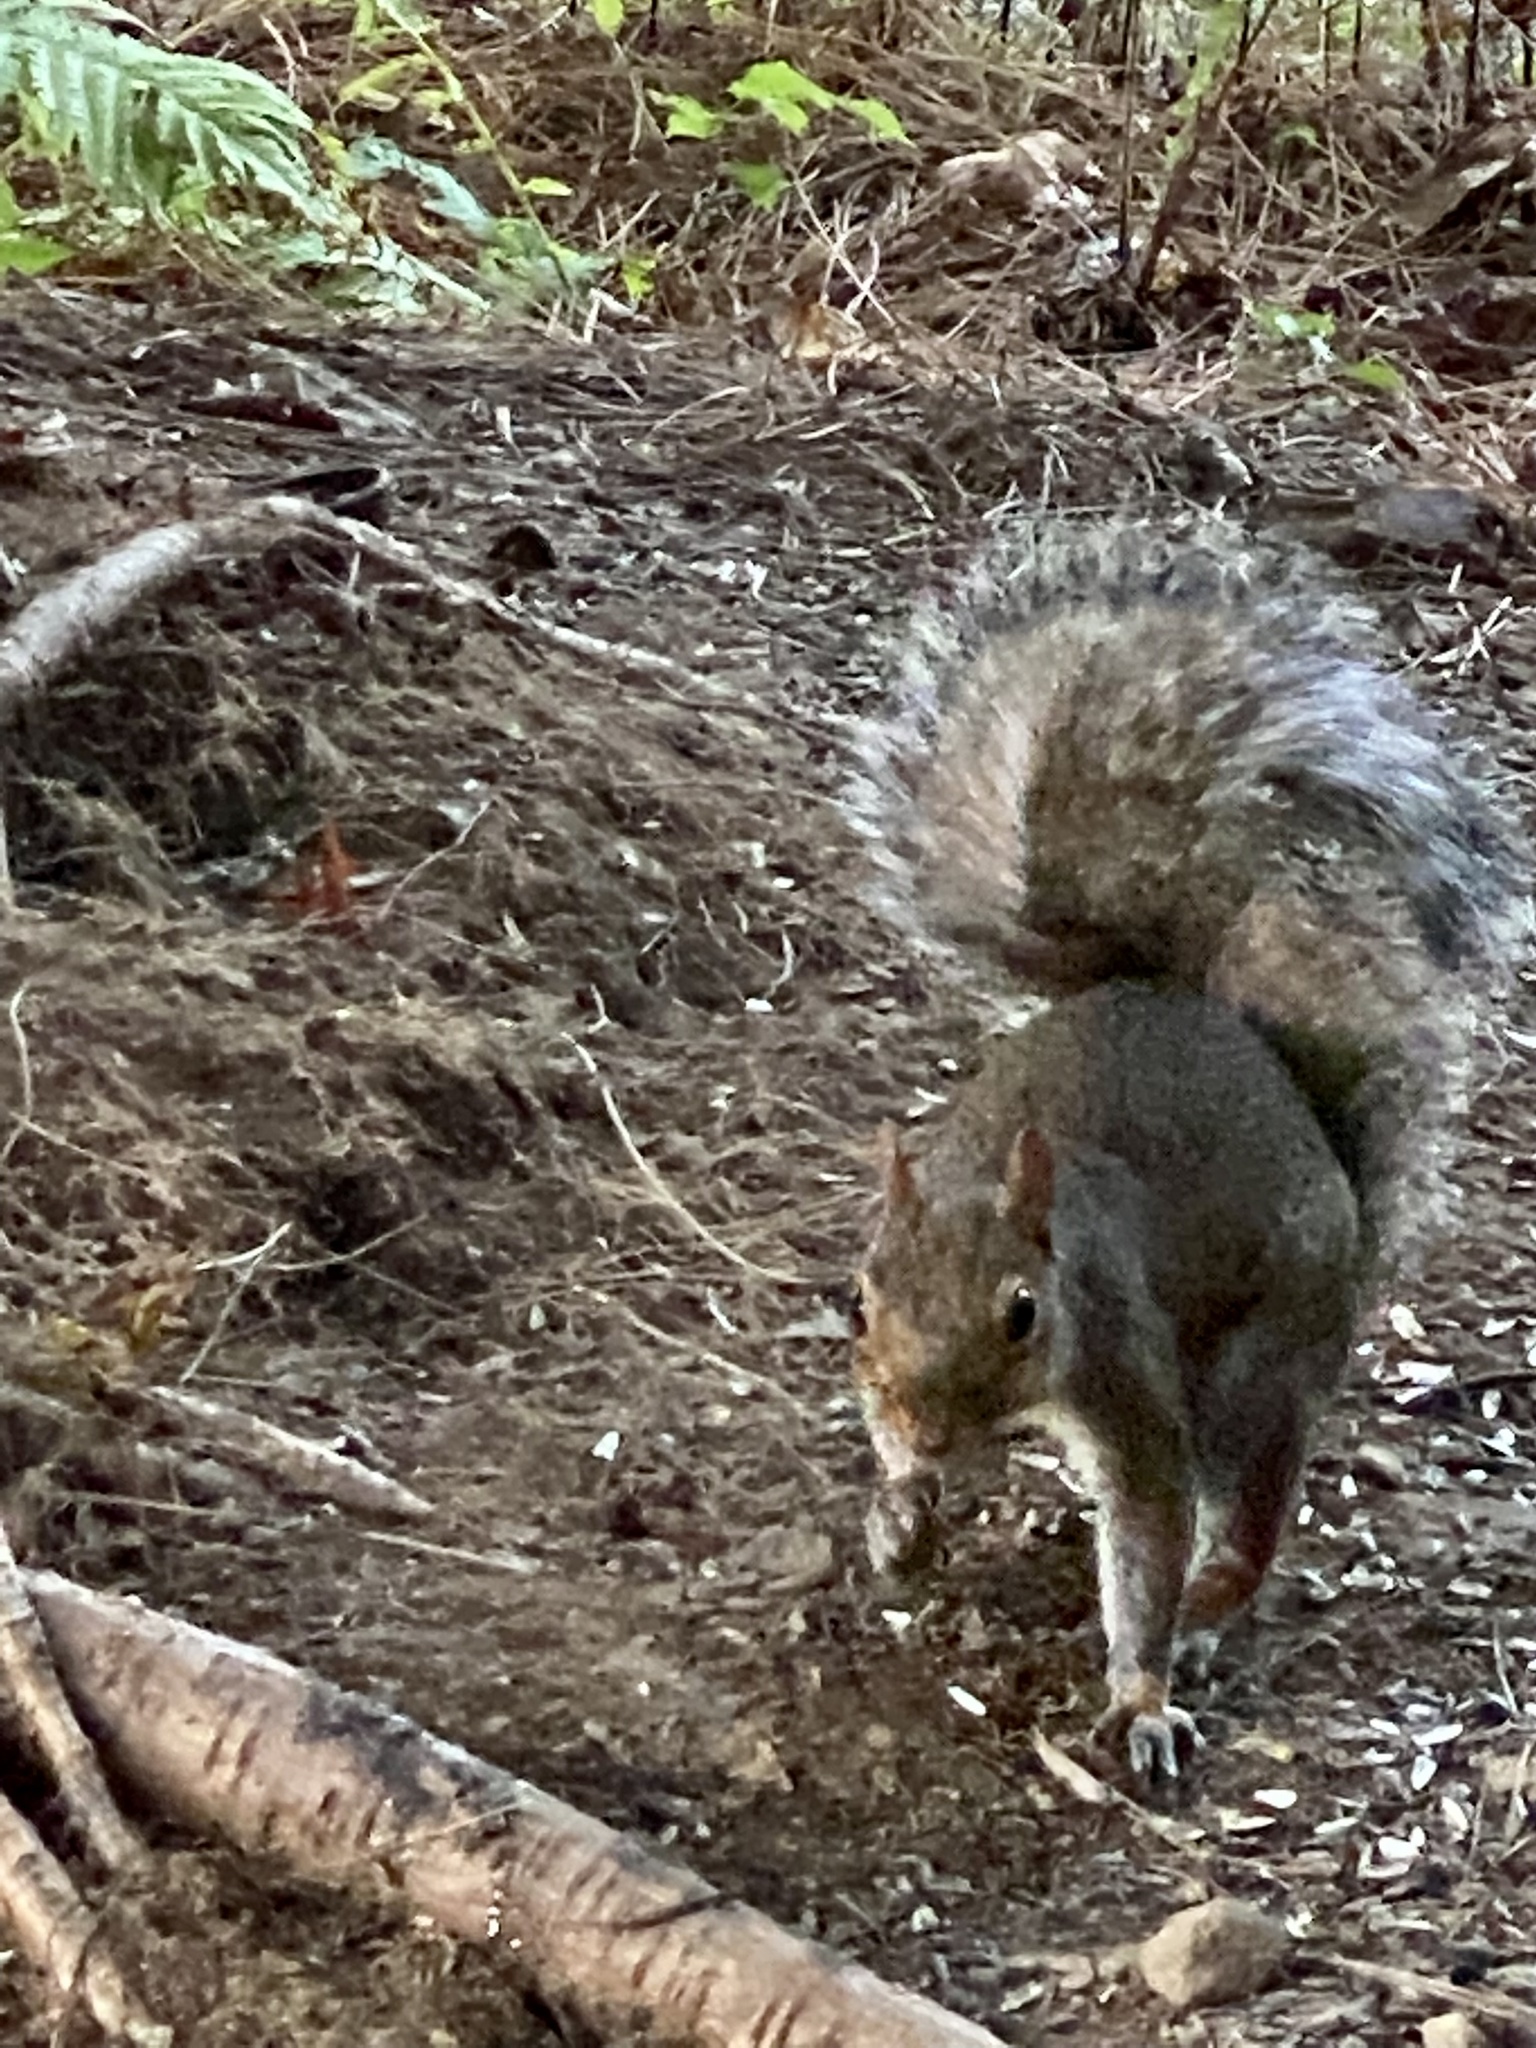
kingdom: Animalia
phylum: Chordata
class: Mammalia
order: Rodentia
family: Sciuridae
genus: Sciurus
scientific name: Sciurus carolinensis
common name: Eastern gray squirrel
